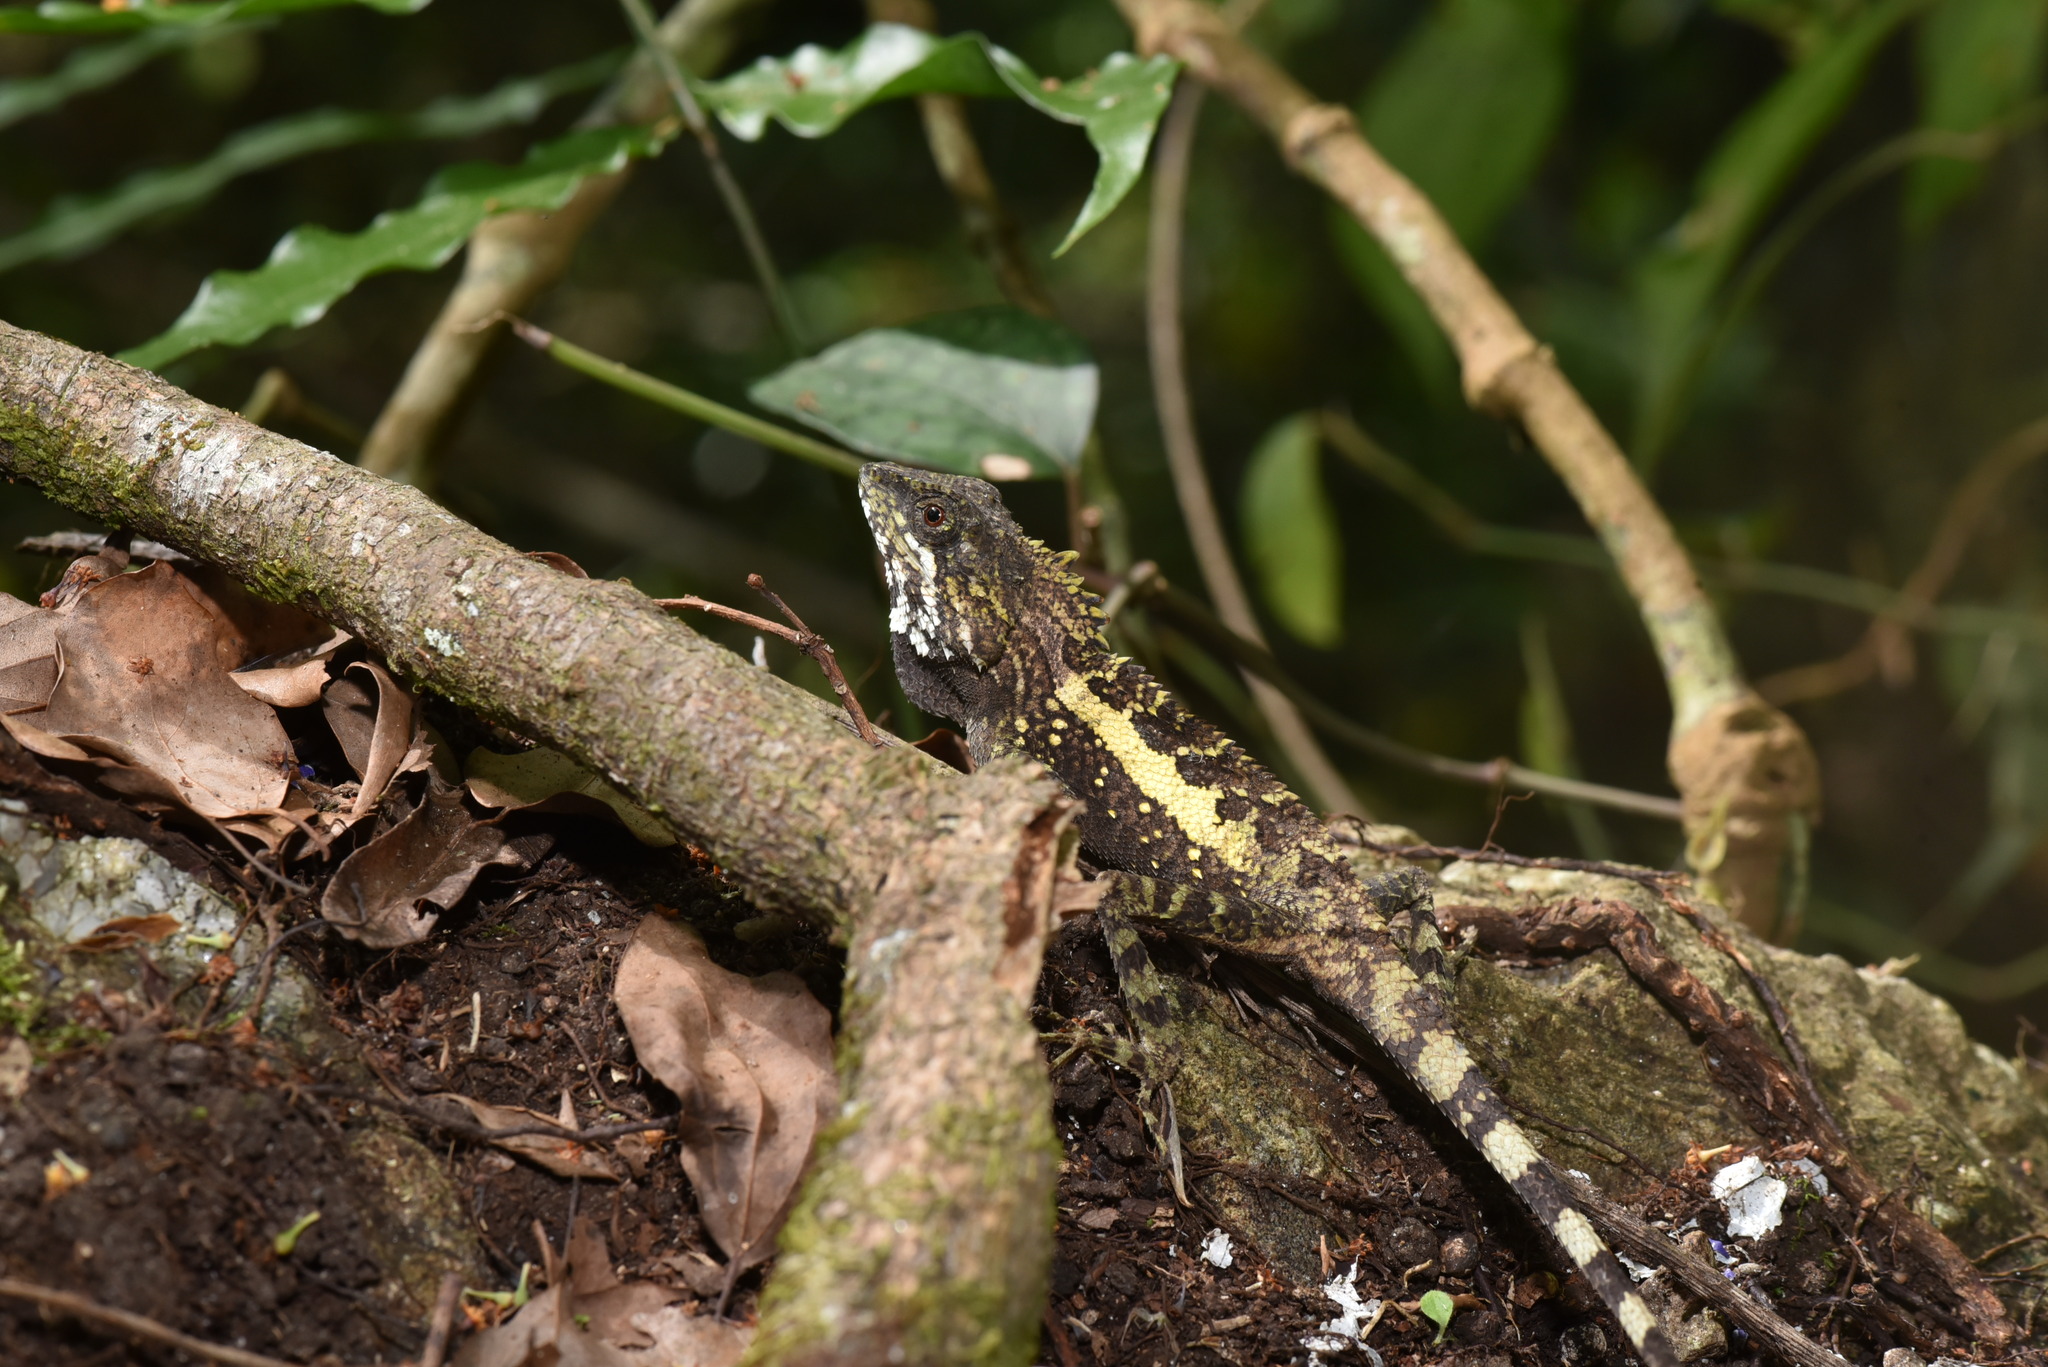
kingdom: Animalia
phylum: Chordata
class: Squamata
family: Agamidae
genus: Diploderma
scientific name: Diploderma swinhonis
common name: Taiwan japalure
